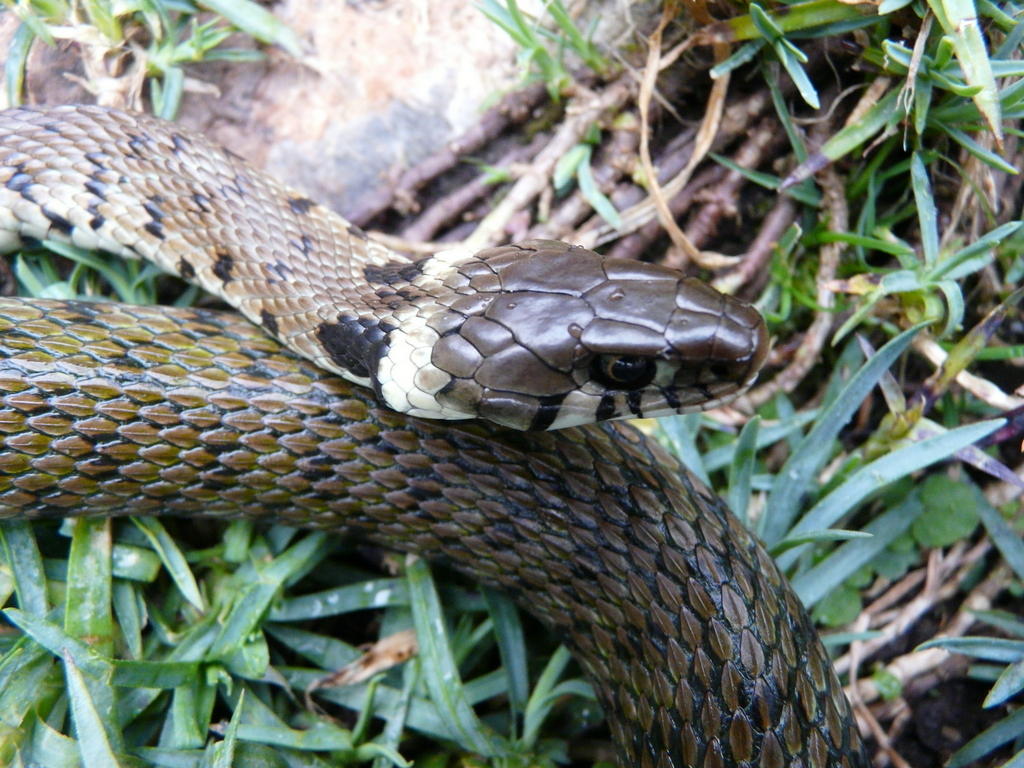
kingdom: Animalia
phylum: Chordata
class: Squamata
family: Colubridae
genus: Natrix
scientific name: Natrix helvetica
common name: Banded grass snake
